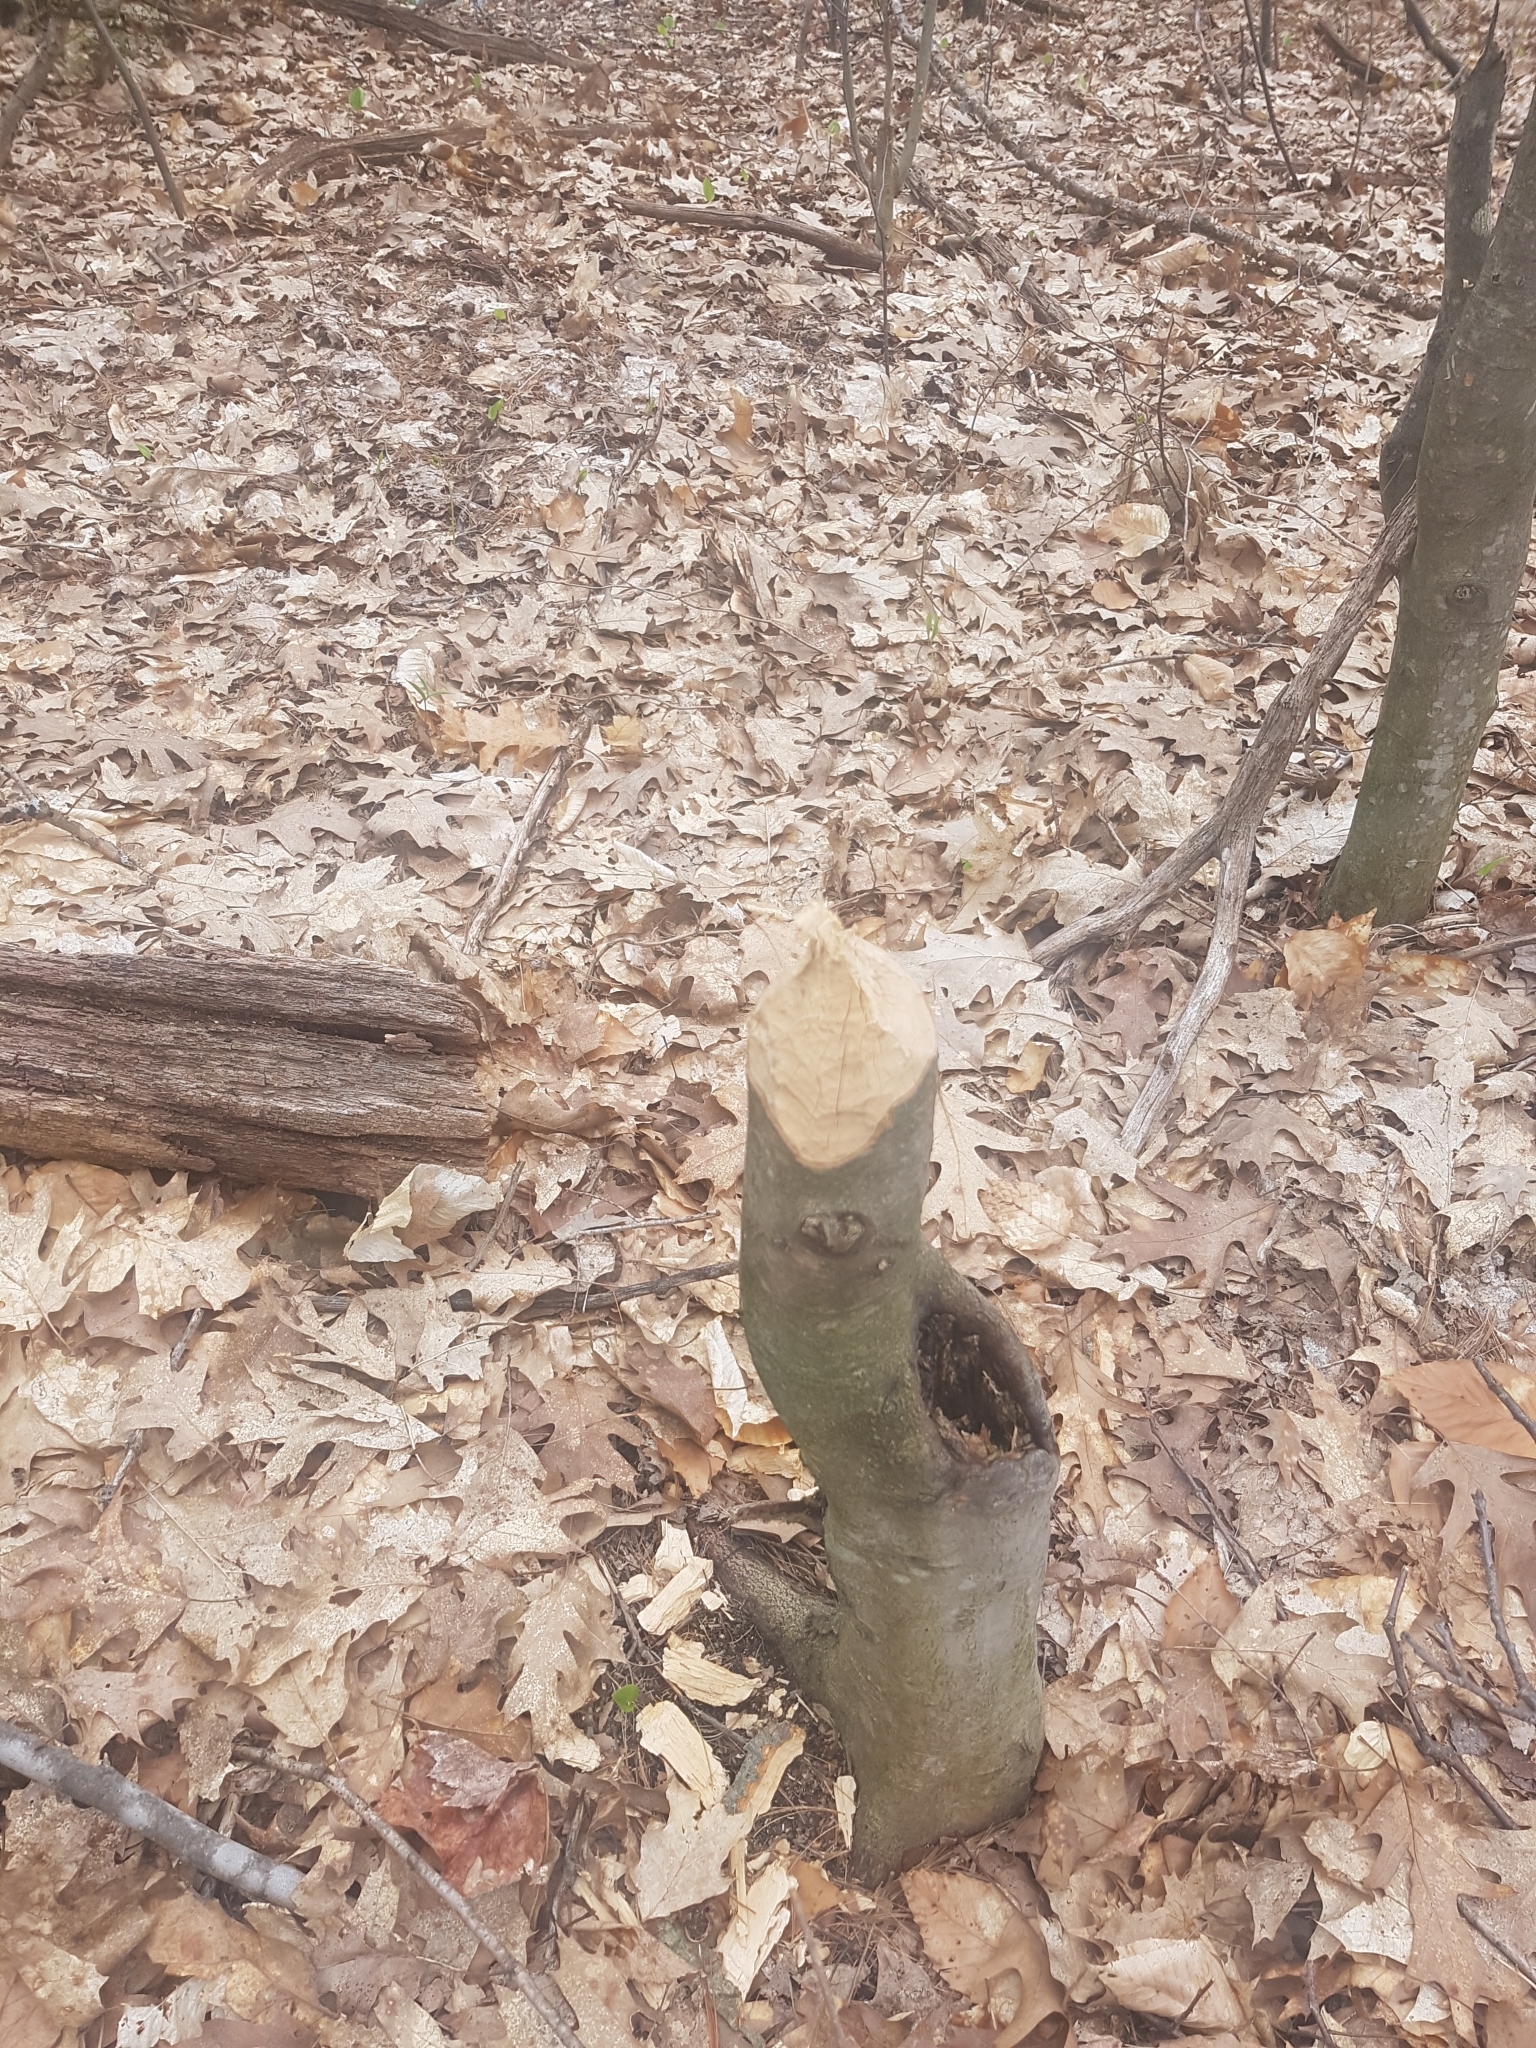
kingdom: Animalia
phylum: Chordata
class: Mammalia
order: Rodentia
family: Castoridae
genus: Castor
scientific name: Castor canadensis
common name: American beaver
